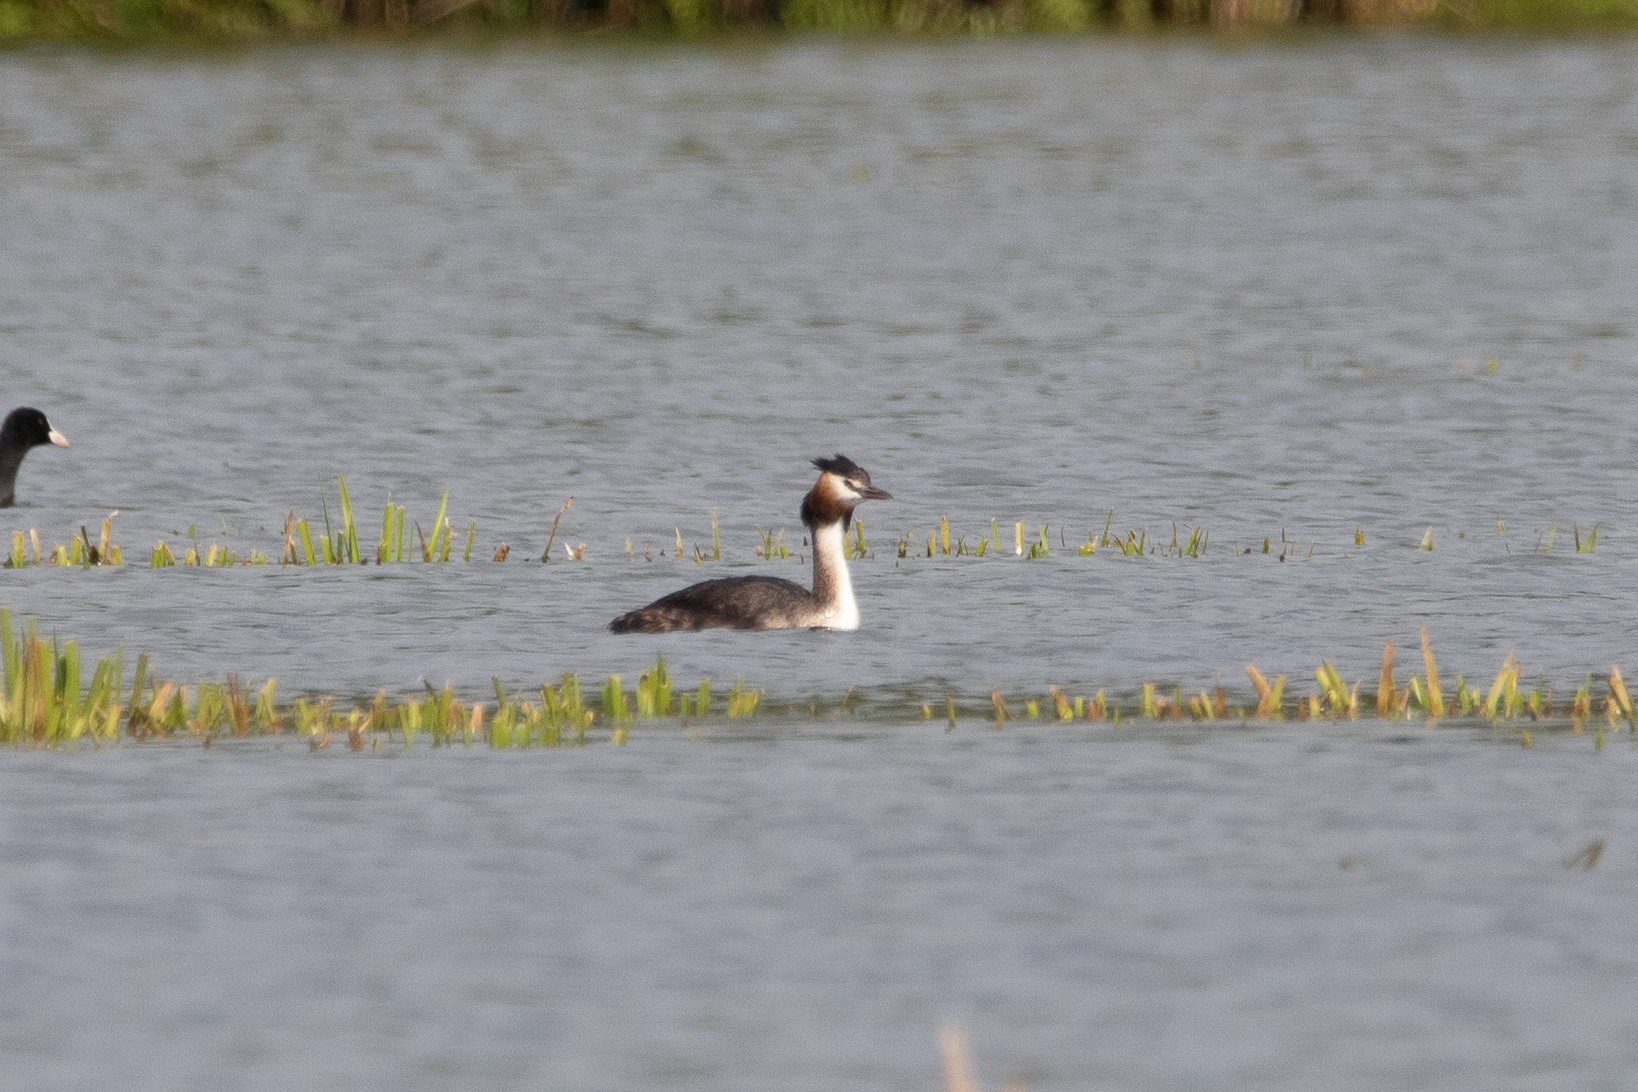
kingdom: Animalia
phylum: Chordata
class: Aves
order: Podicipediformes
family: Podicipedidae
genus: Podiceps
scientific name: Podiceps cristatus
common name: Great crested grebe
